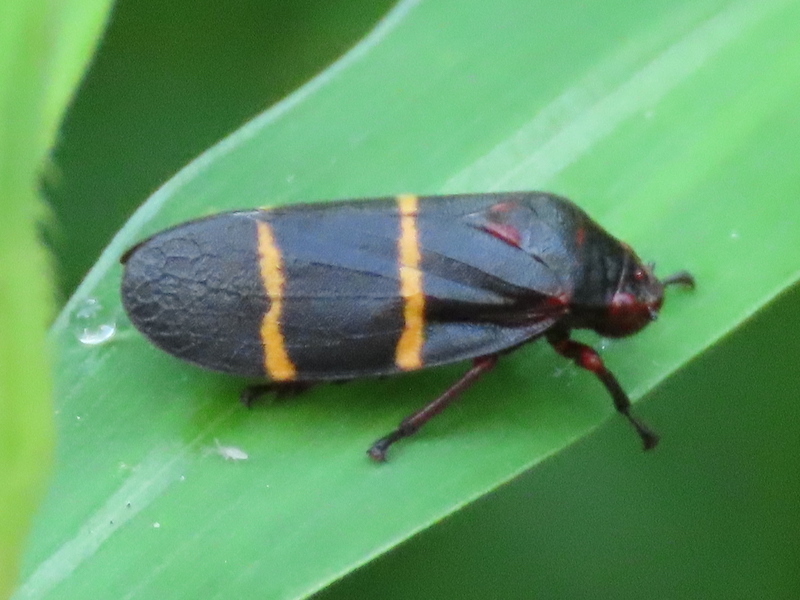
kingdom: Animalia
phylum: Arthropoda
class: Insecta
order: Hemiptera
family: Cercopidae
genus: Prosapia
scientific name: Prosapia bicincta
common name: Twolined spittlebug
